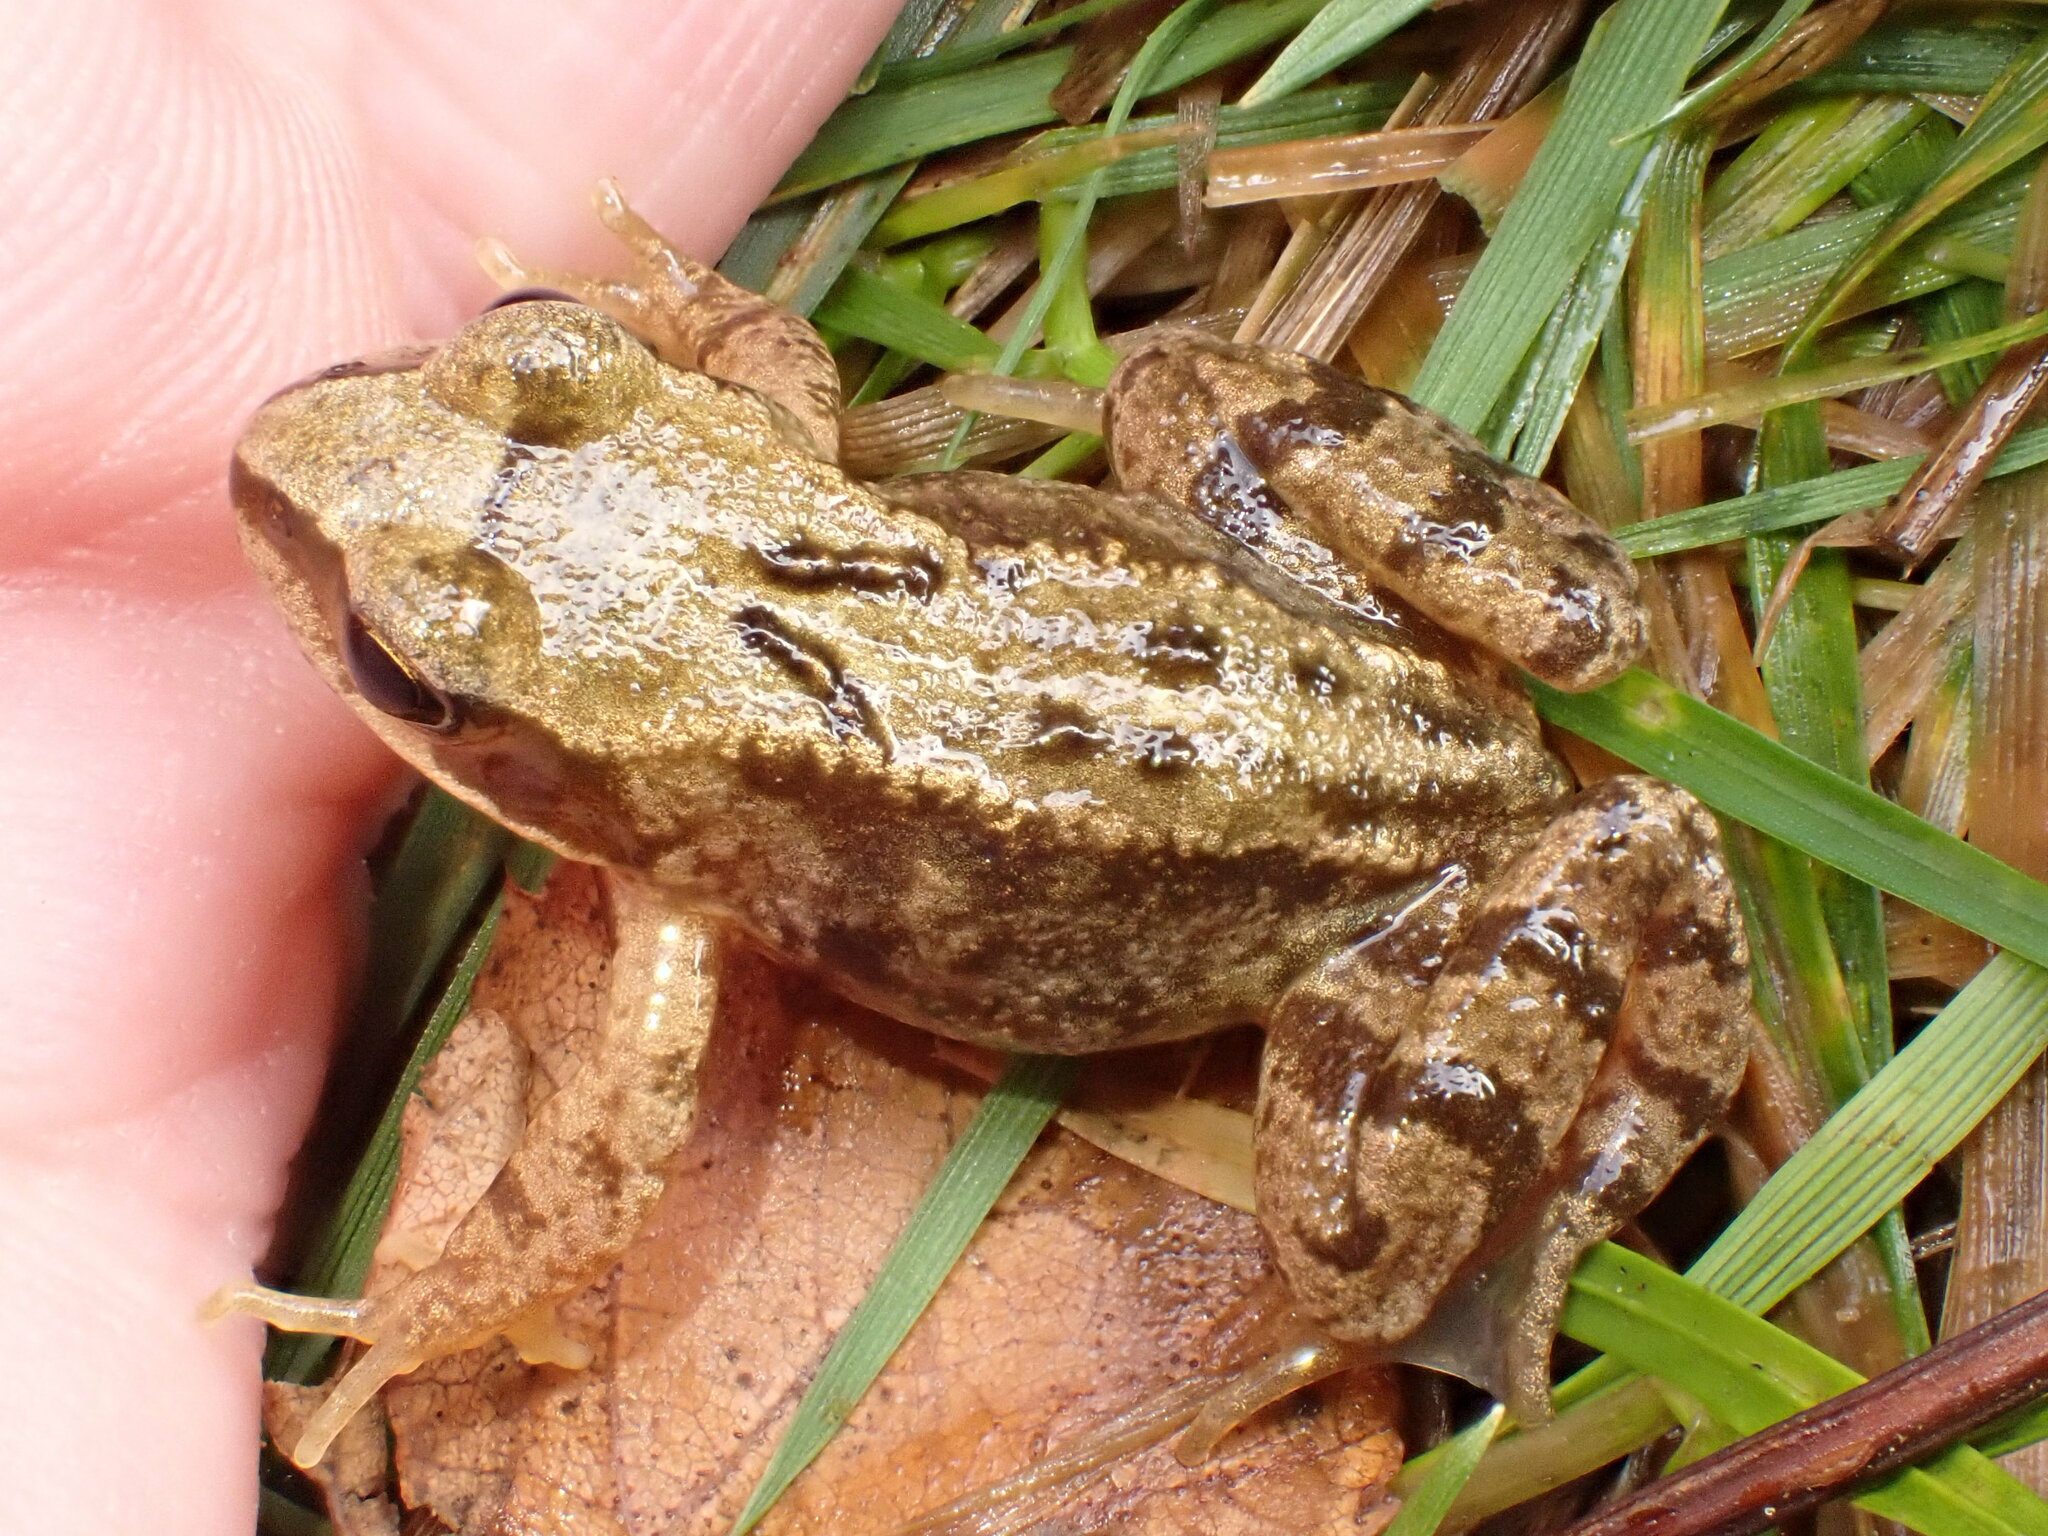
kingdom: Animalia
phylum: Chordata
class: Amphibia
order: Anura
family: Ranidae
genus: Rana
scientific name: Rana temporaria
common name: Common frog
